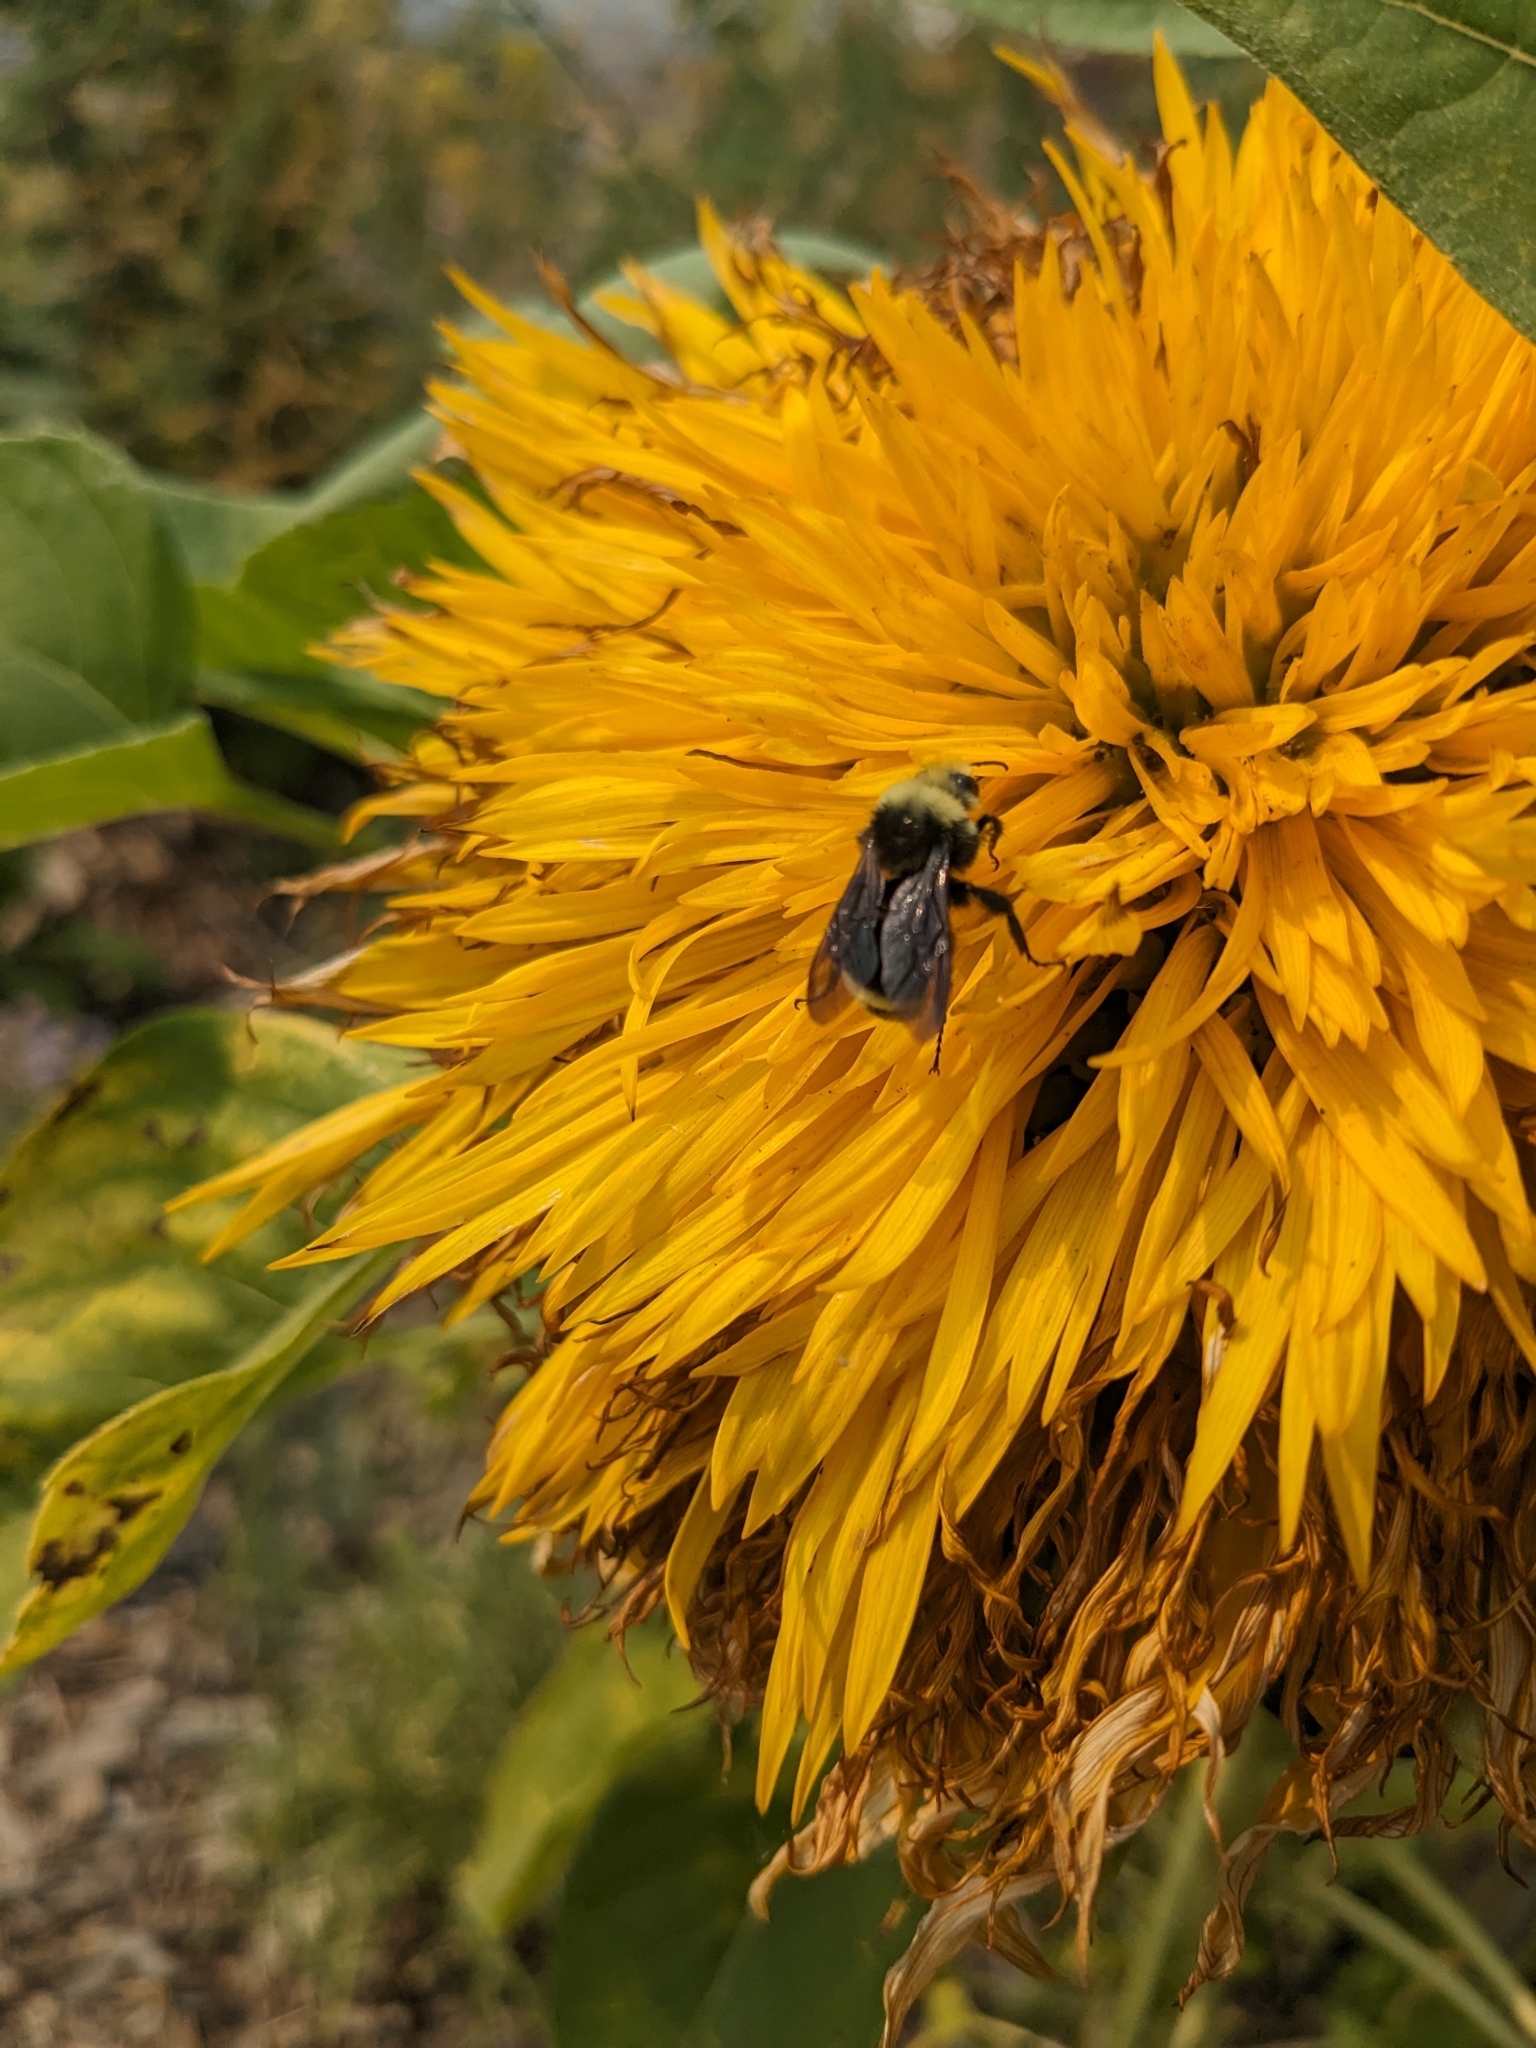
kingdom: Animalia
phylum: Arthropoda
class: Insecta
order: Hymenoptera
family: Apidae
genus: Bombus
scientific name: Bombus vosnesenskii
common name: Vosnesensky bumble bee
